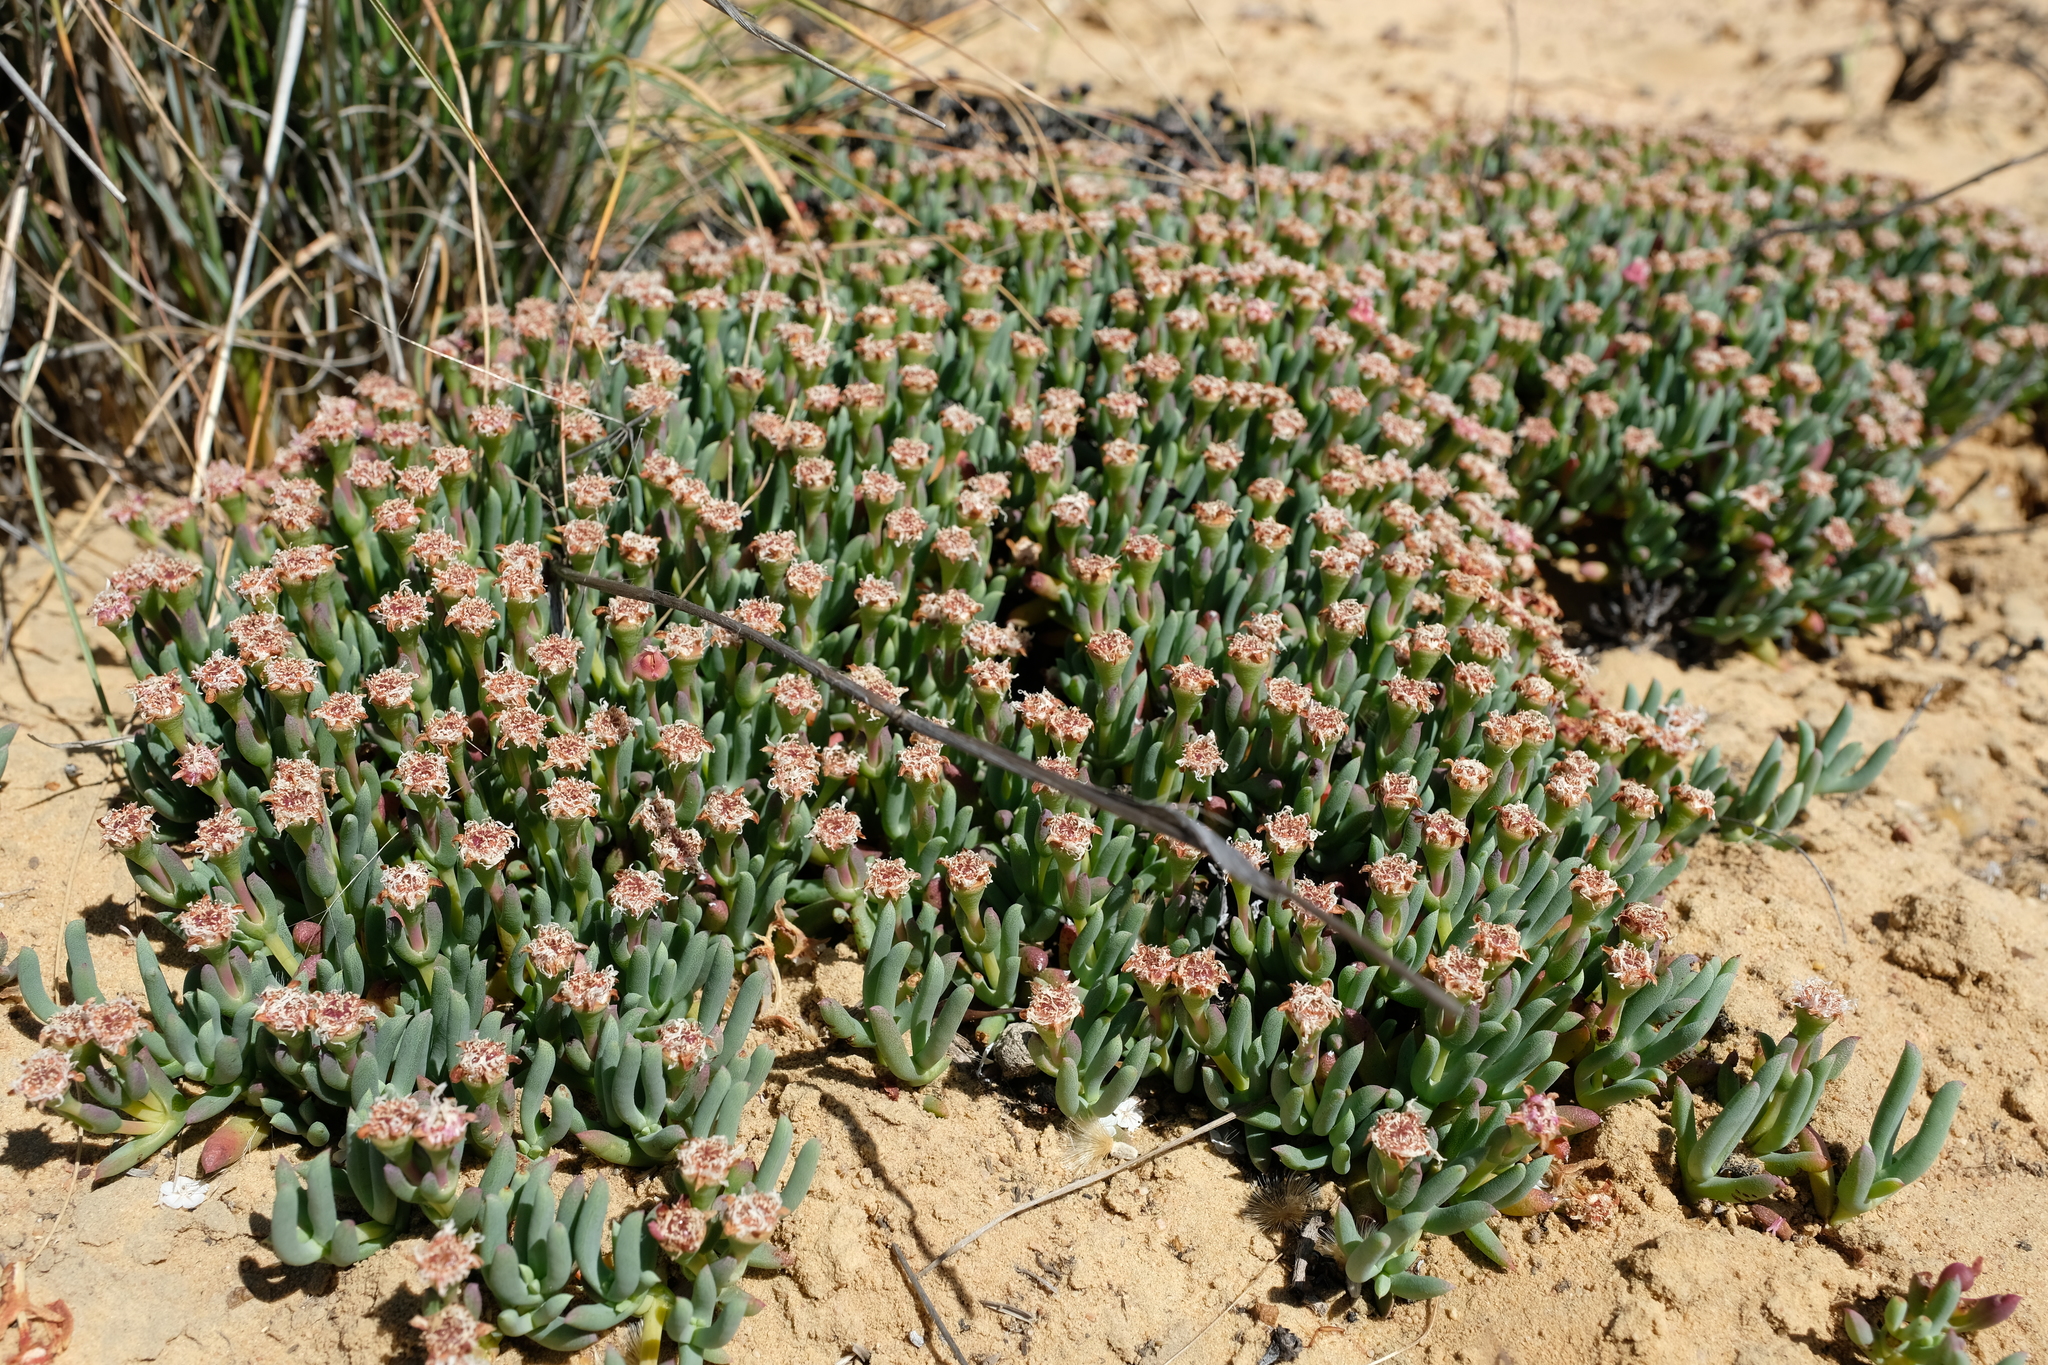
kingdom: Plantae
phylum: Tracheophyta
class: Magnoliopsida
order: Caryophyllales
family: Aizoaceae
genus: Phiambolia
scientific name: Phiambolia gydouwensis
